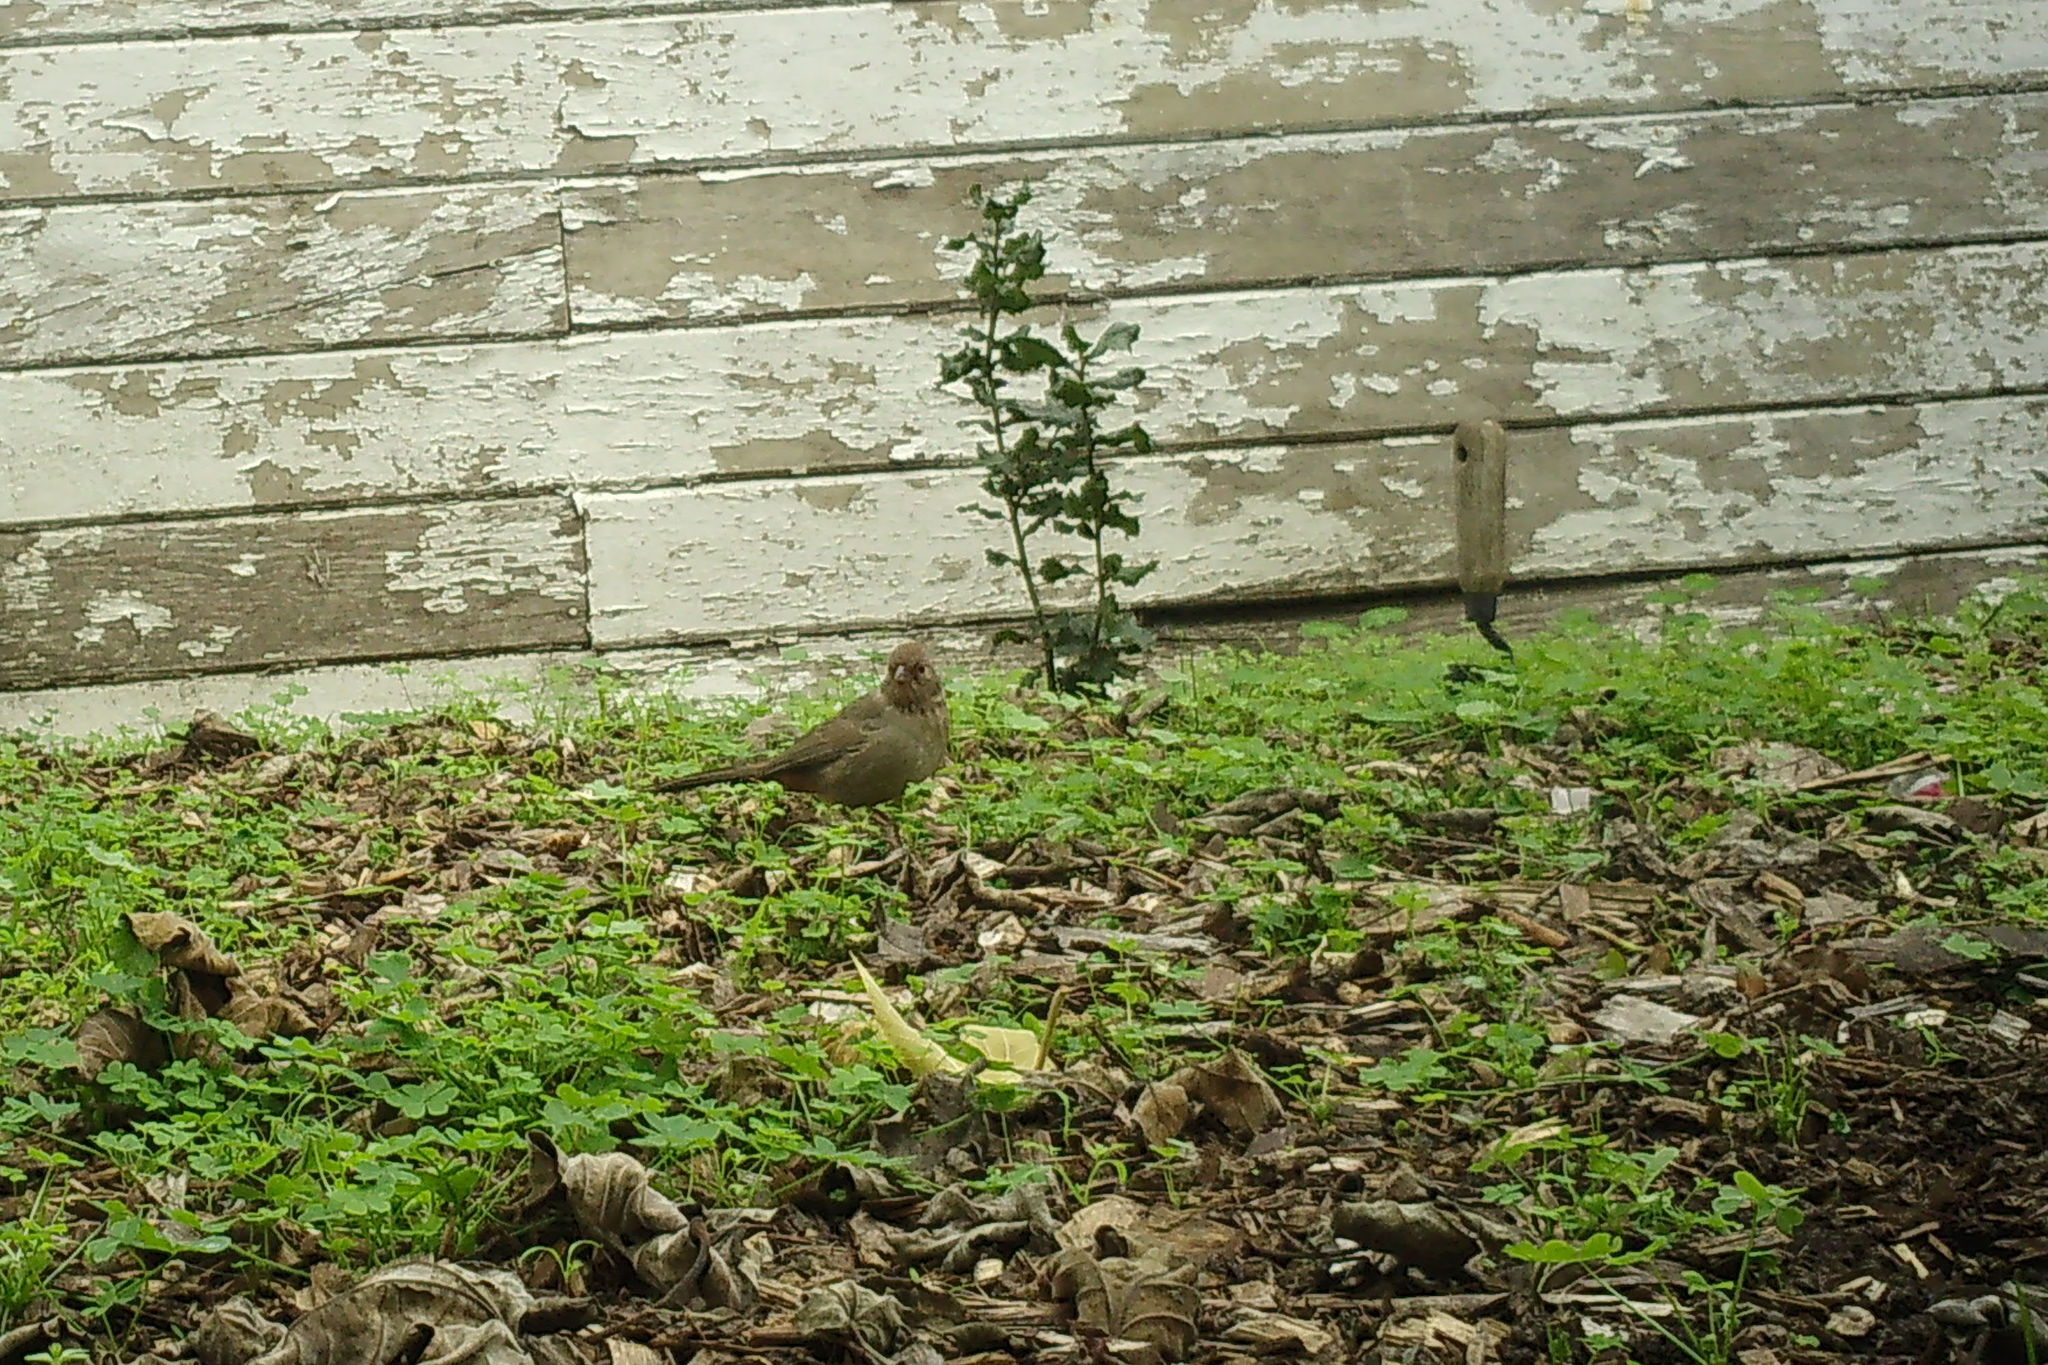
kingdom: Animalia
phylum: Chordata
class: Aves
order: Passeriformes
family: Passerellidae
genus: Melozone
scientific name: Melozone crissalis
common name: California towhee
